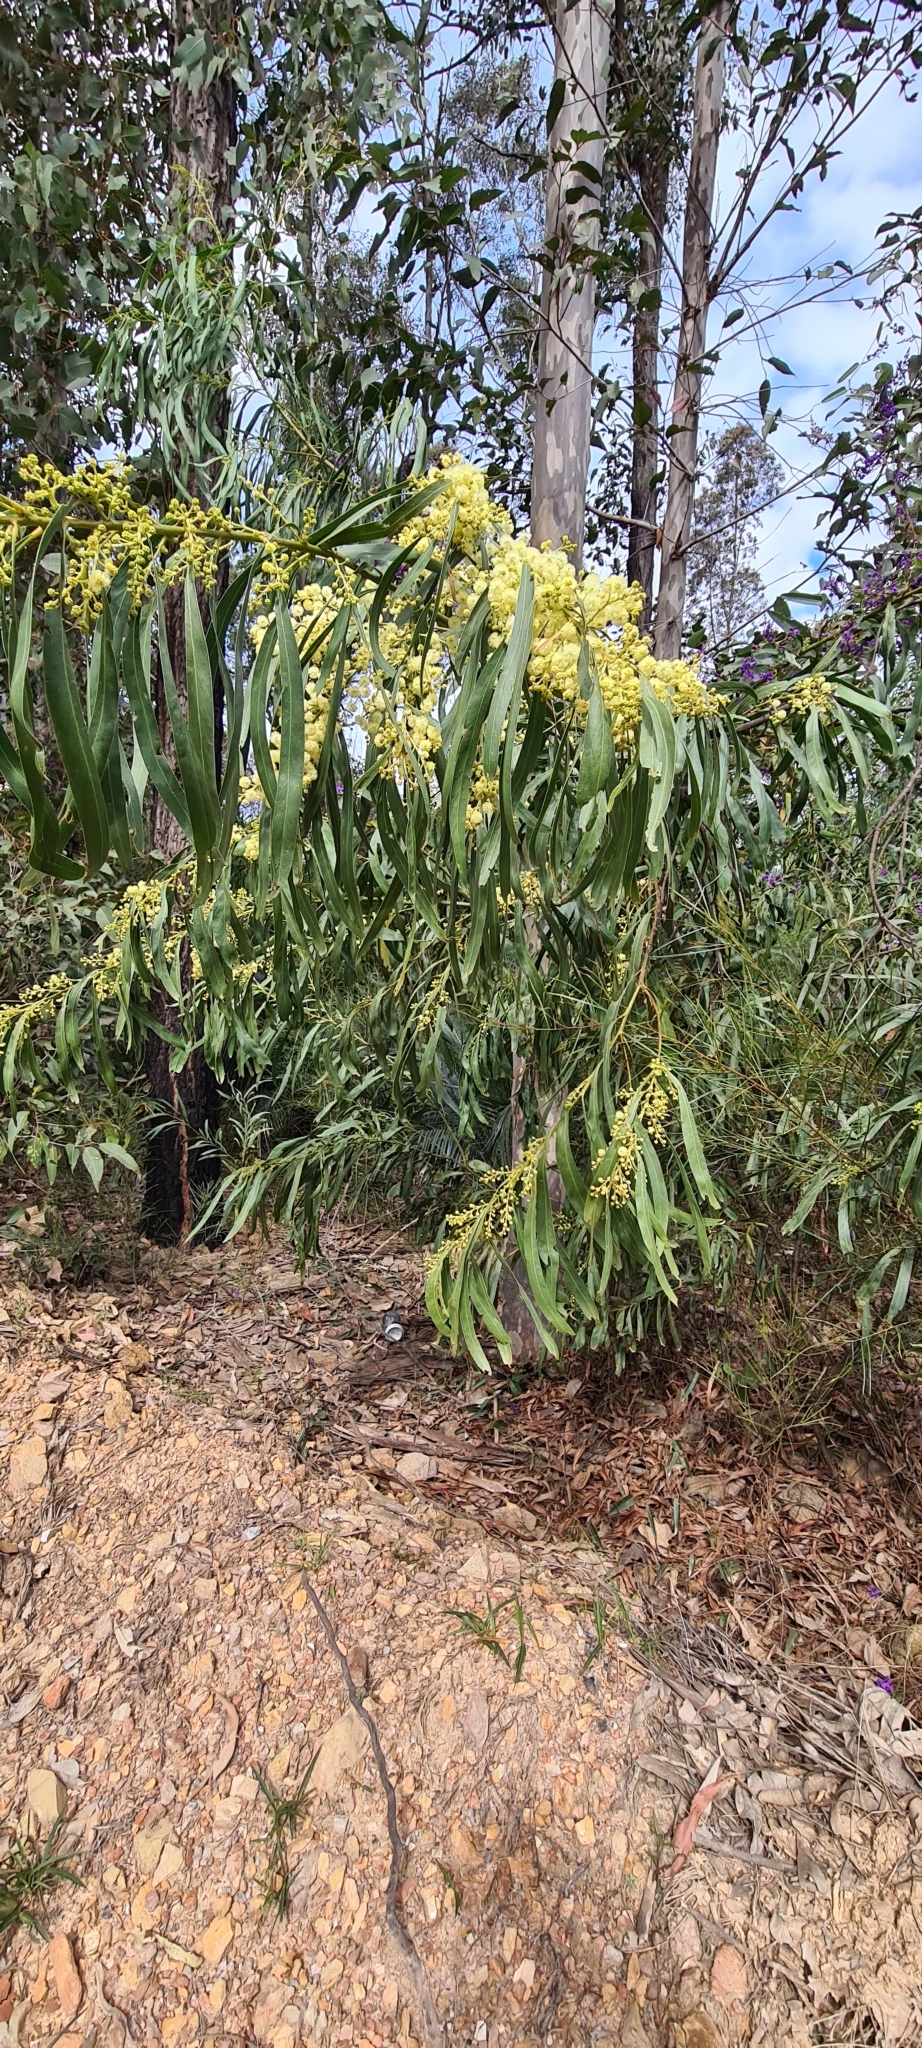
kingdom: Plantae
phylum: Tracheophyta
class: Magnoliopsida
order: Fabales
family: Fabaceae
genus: Acacia
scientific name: Acacia falciformis
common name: Tanning wattle
